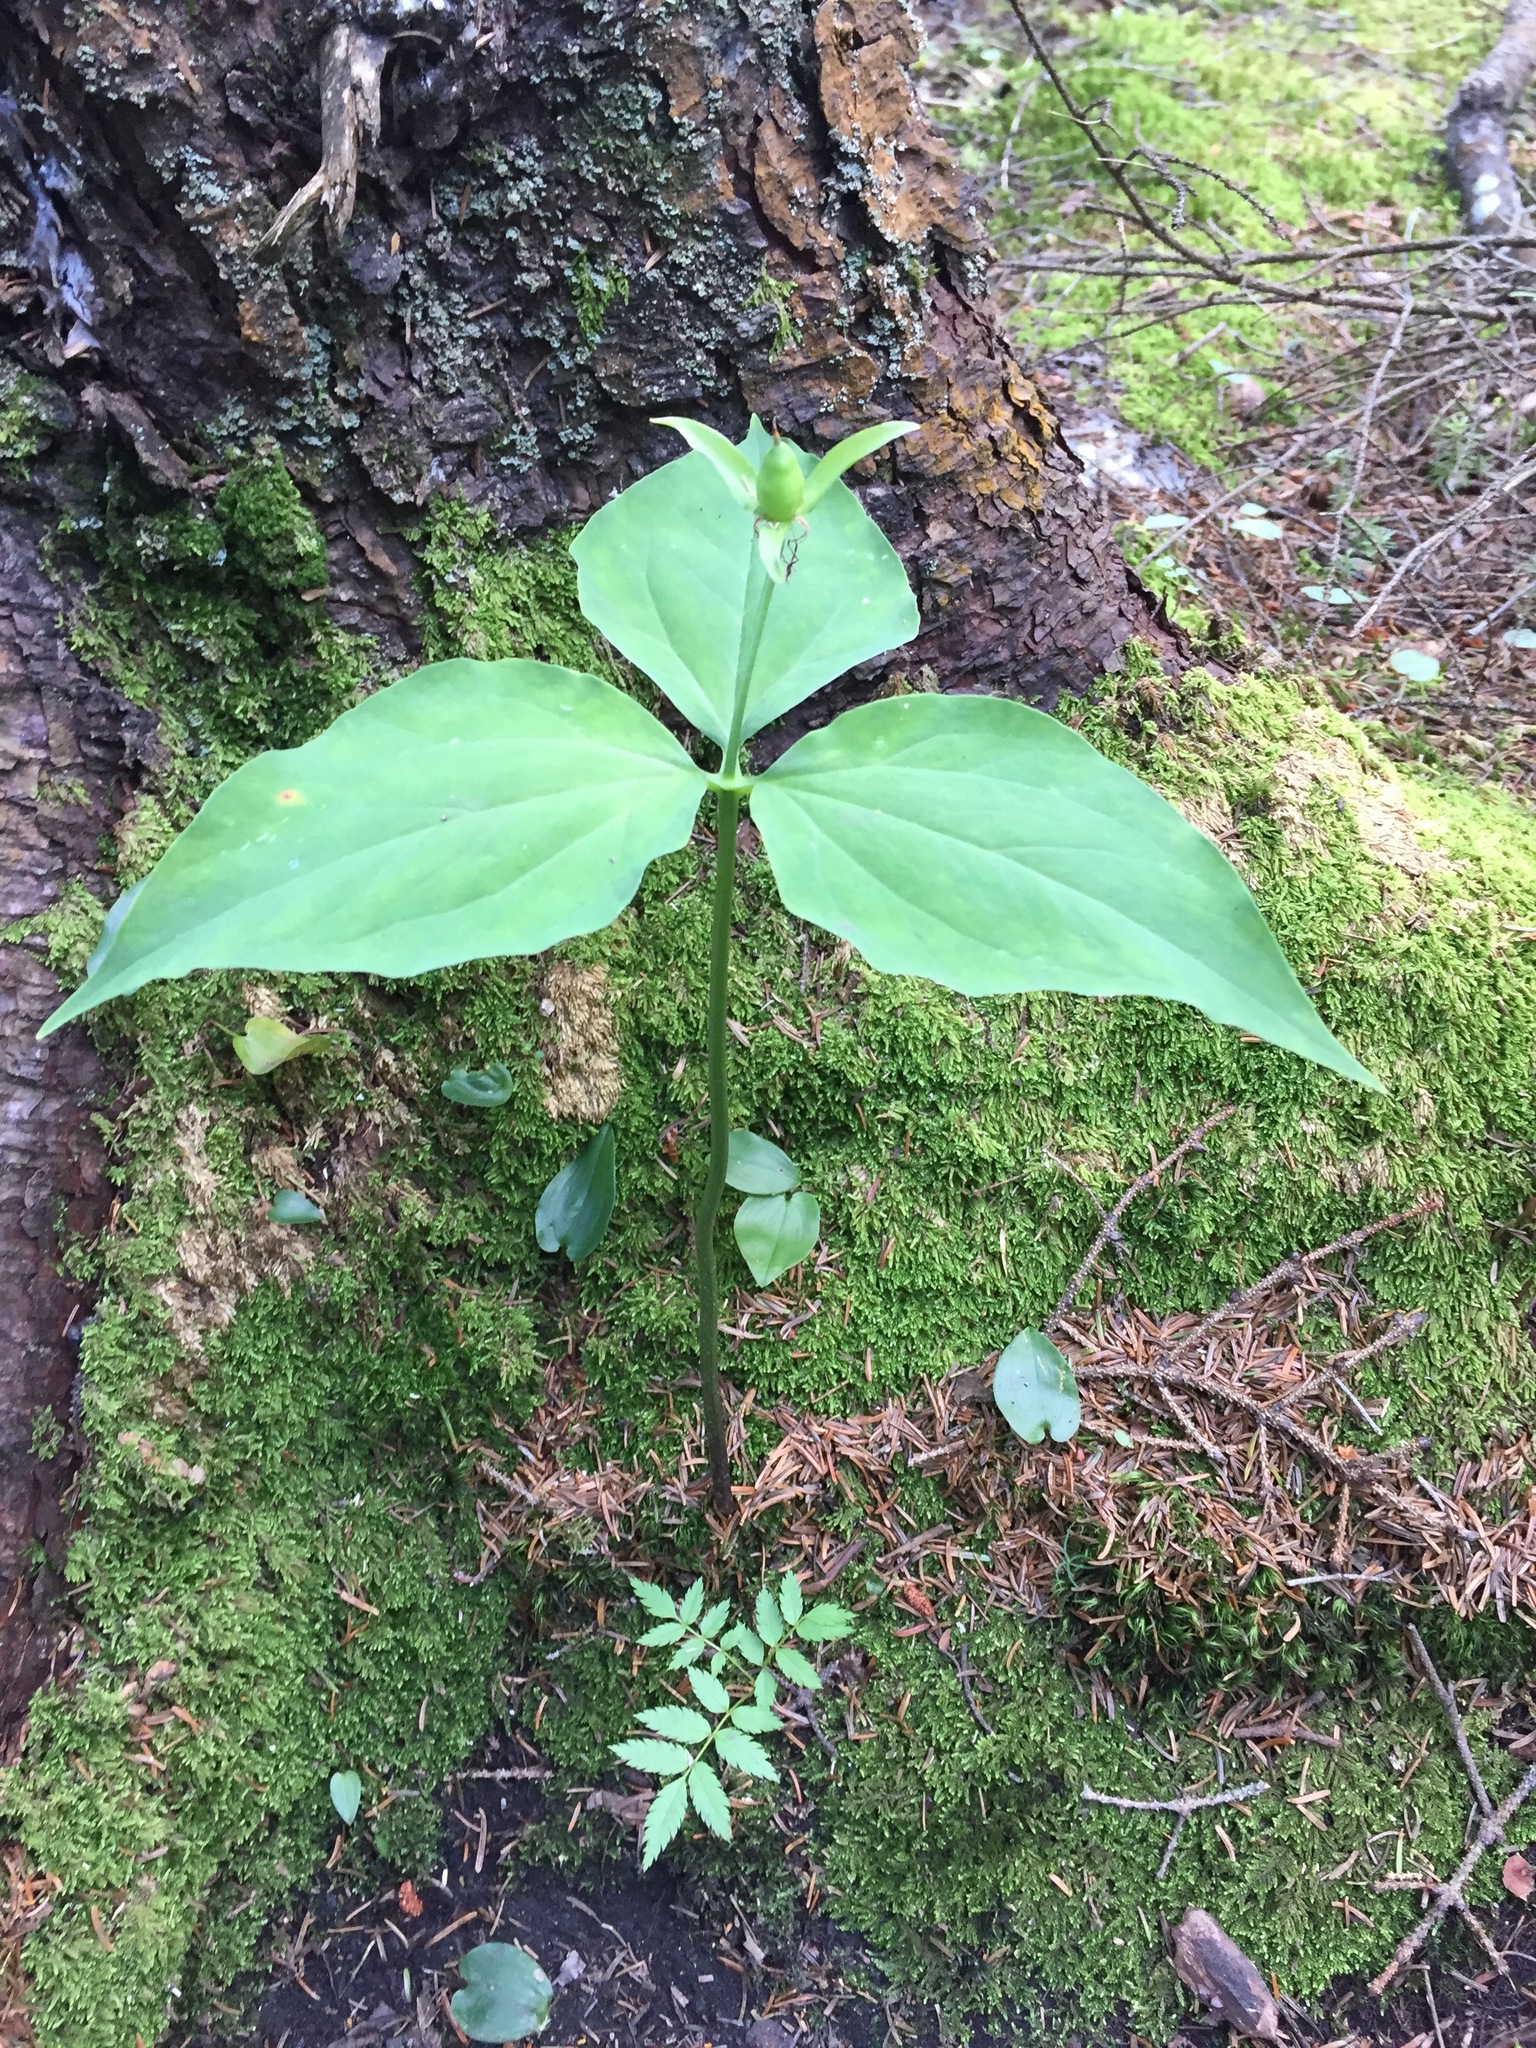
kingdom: Plantae
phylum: Tracheophyta
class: Liliopsida
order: Liliales
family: Melanthiaceae
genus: Trillium
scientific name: Trillium undulatum
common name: Paint trillium
